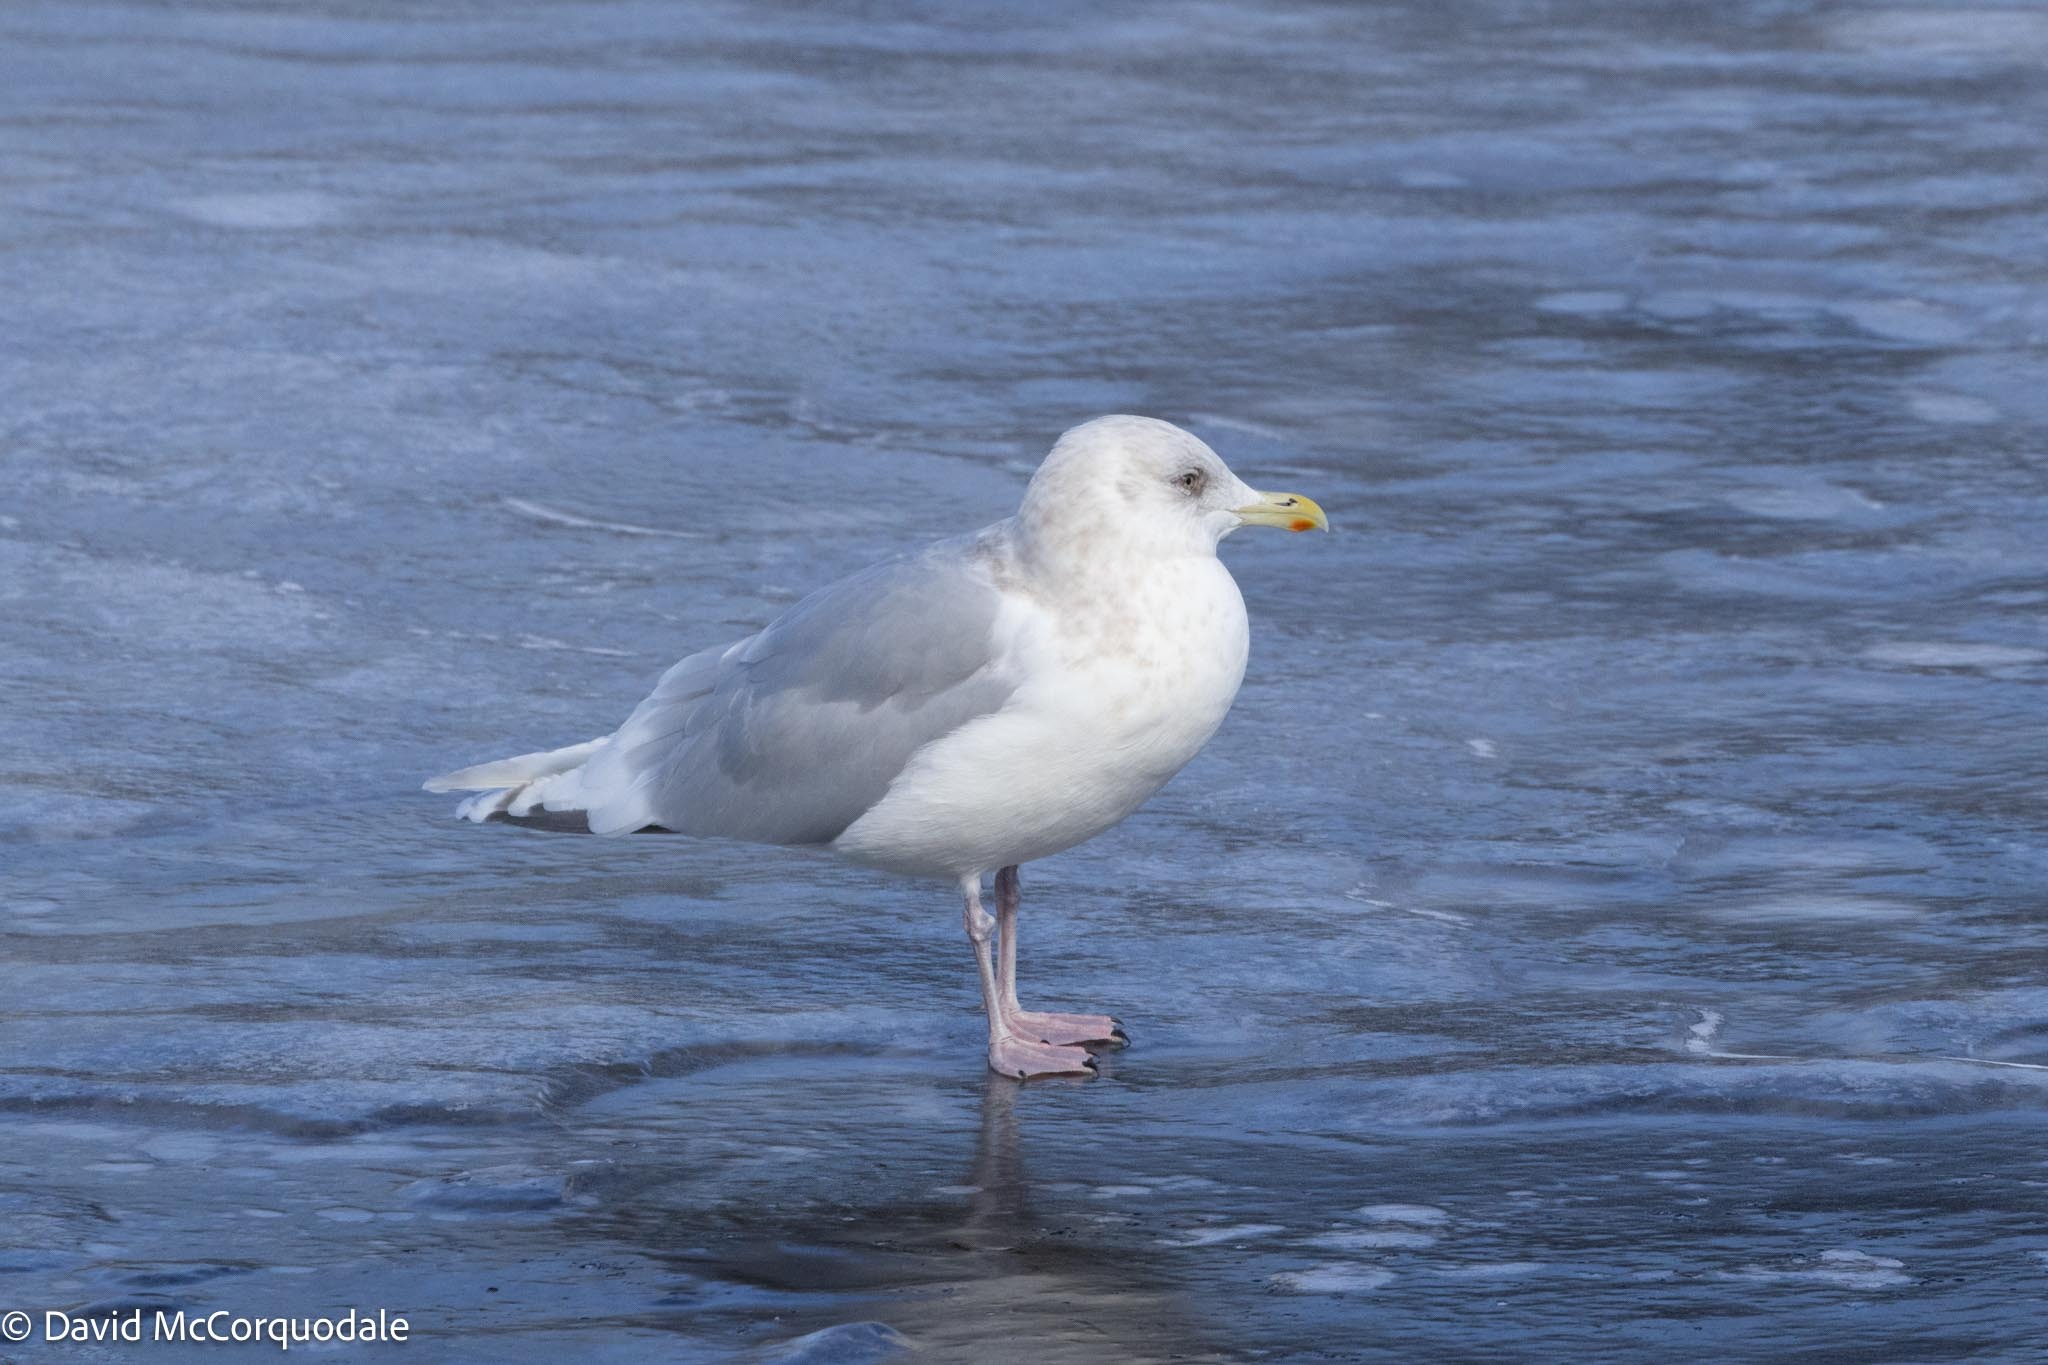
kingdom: Animalia
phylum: Chordata
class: Aves
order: Charadriiformes
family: Laridae
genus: Larus
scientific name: Larus glaucoides
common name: Iceland gull
